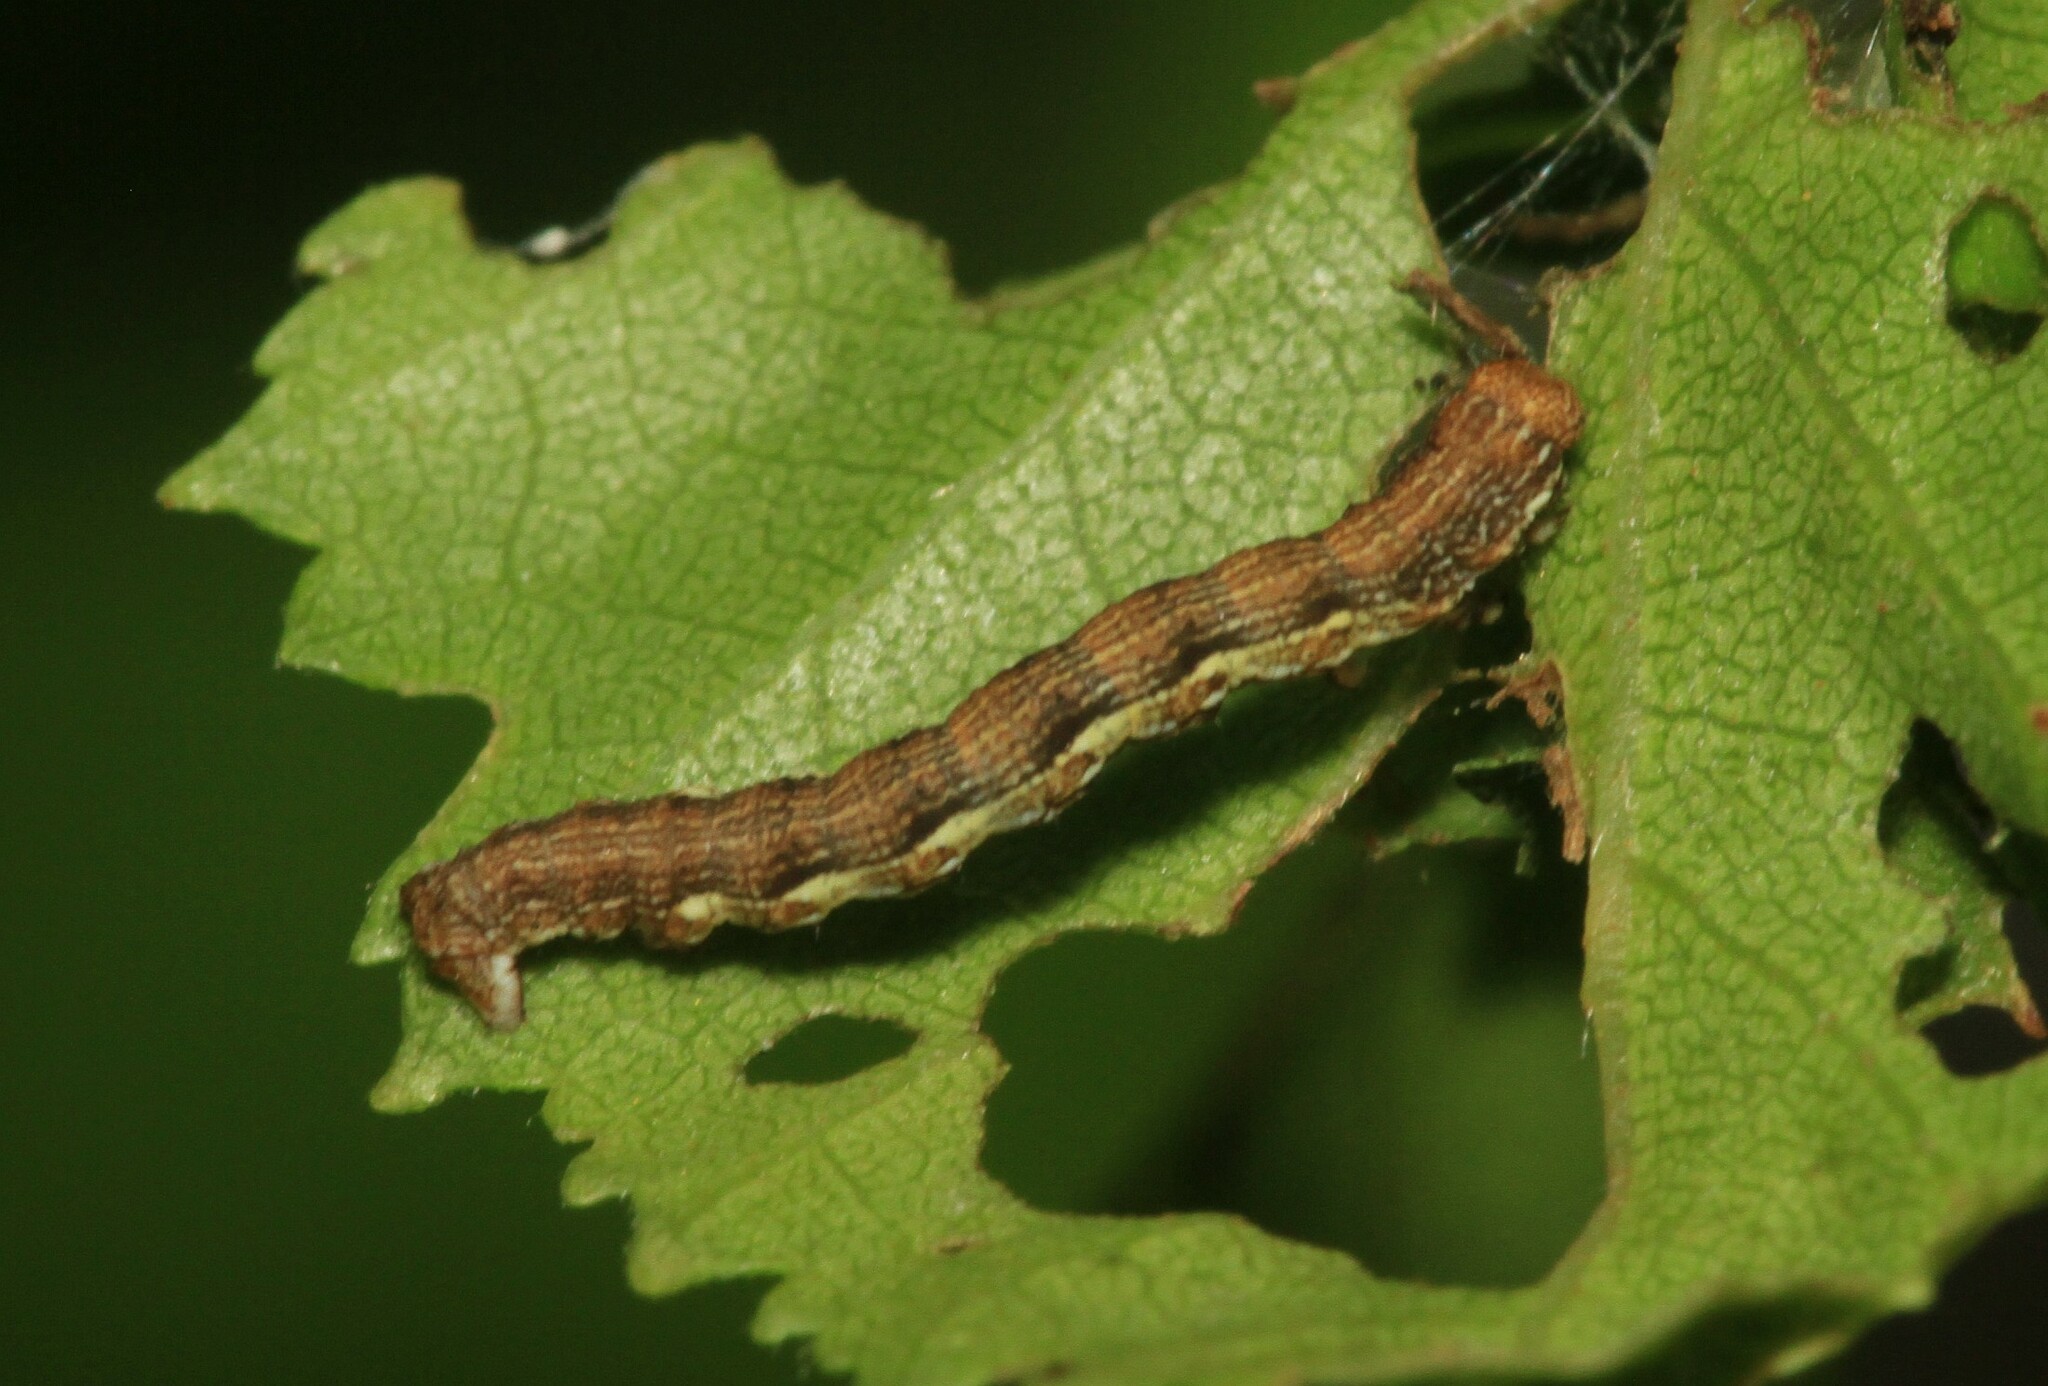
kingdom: Animalia
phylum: Arthropoda
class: Insecta
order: Lepidoptera
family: Geometridae
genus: Erannis
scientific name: Erannis defoliaria
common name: Mottled umber
